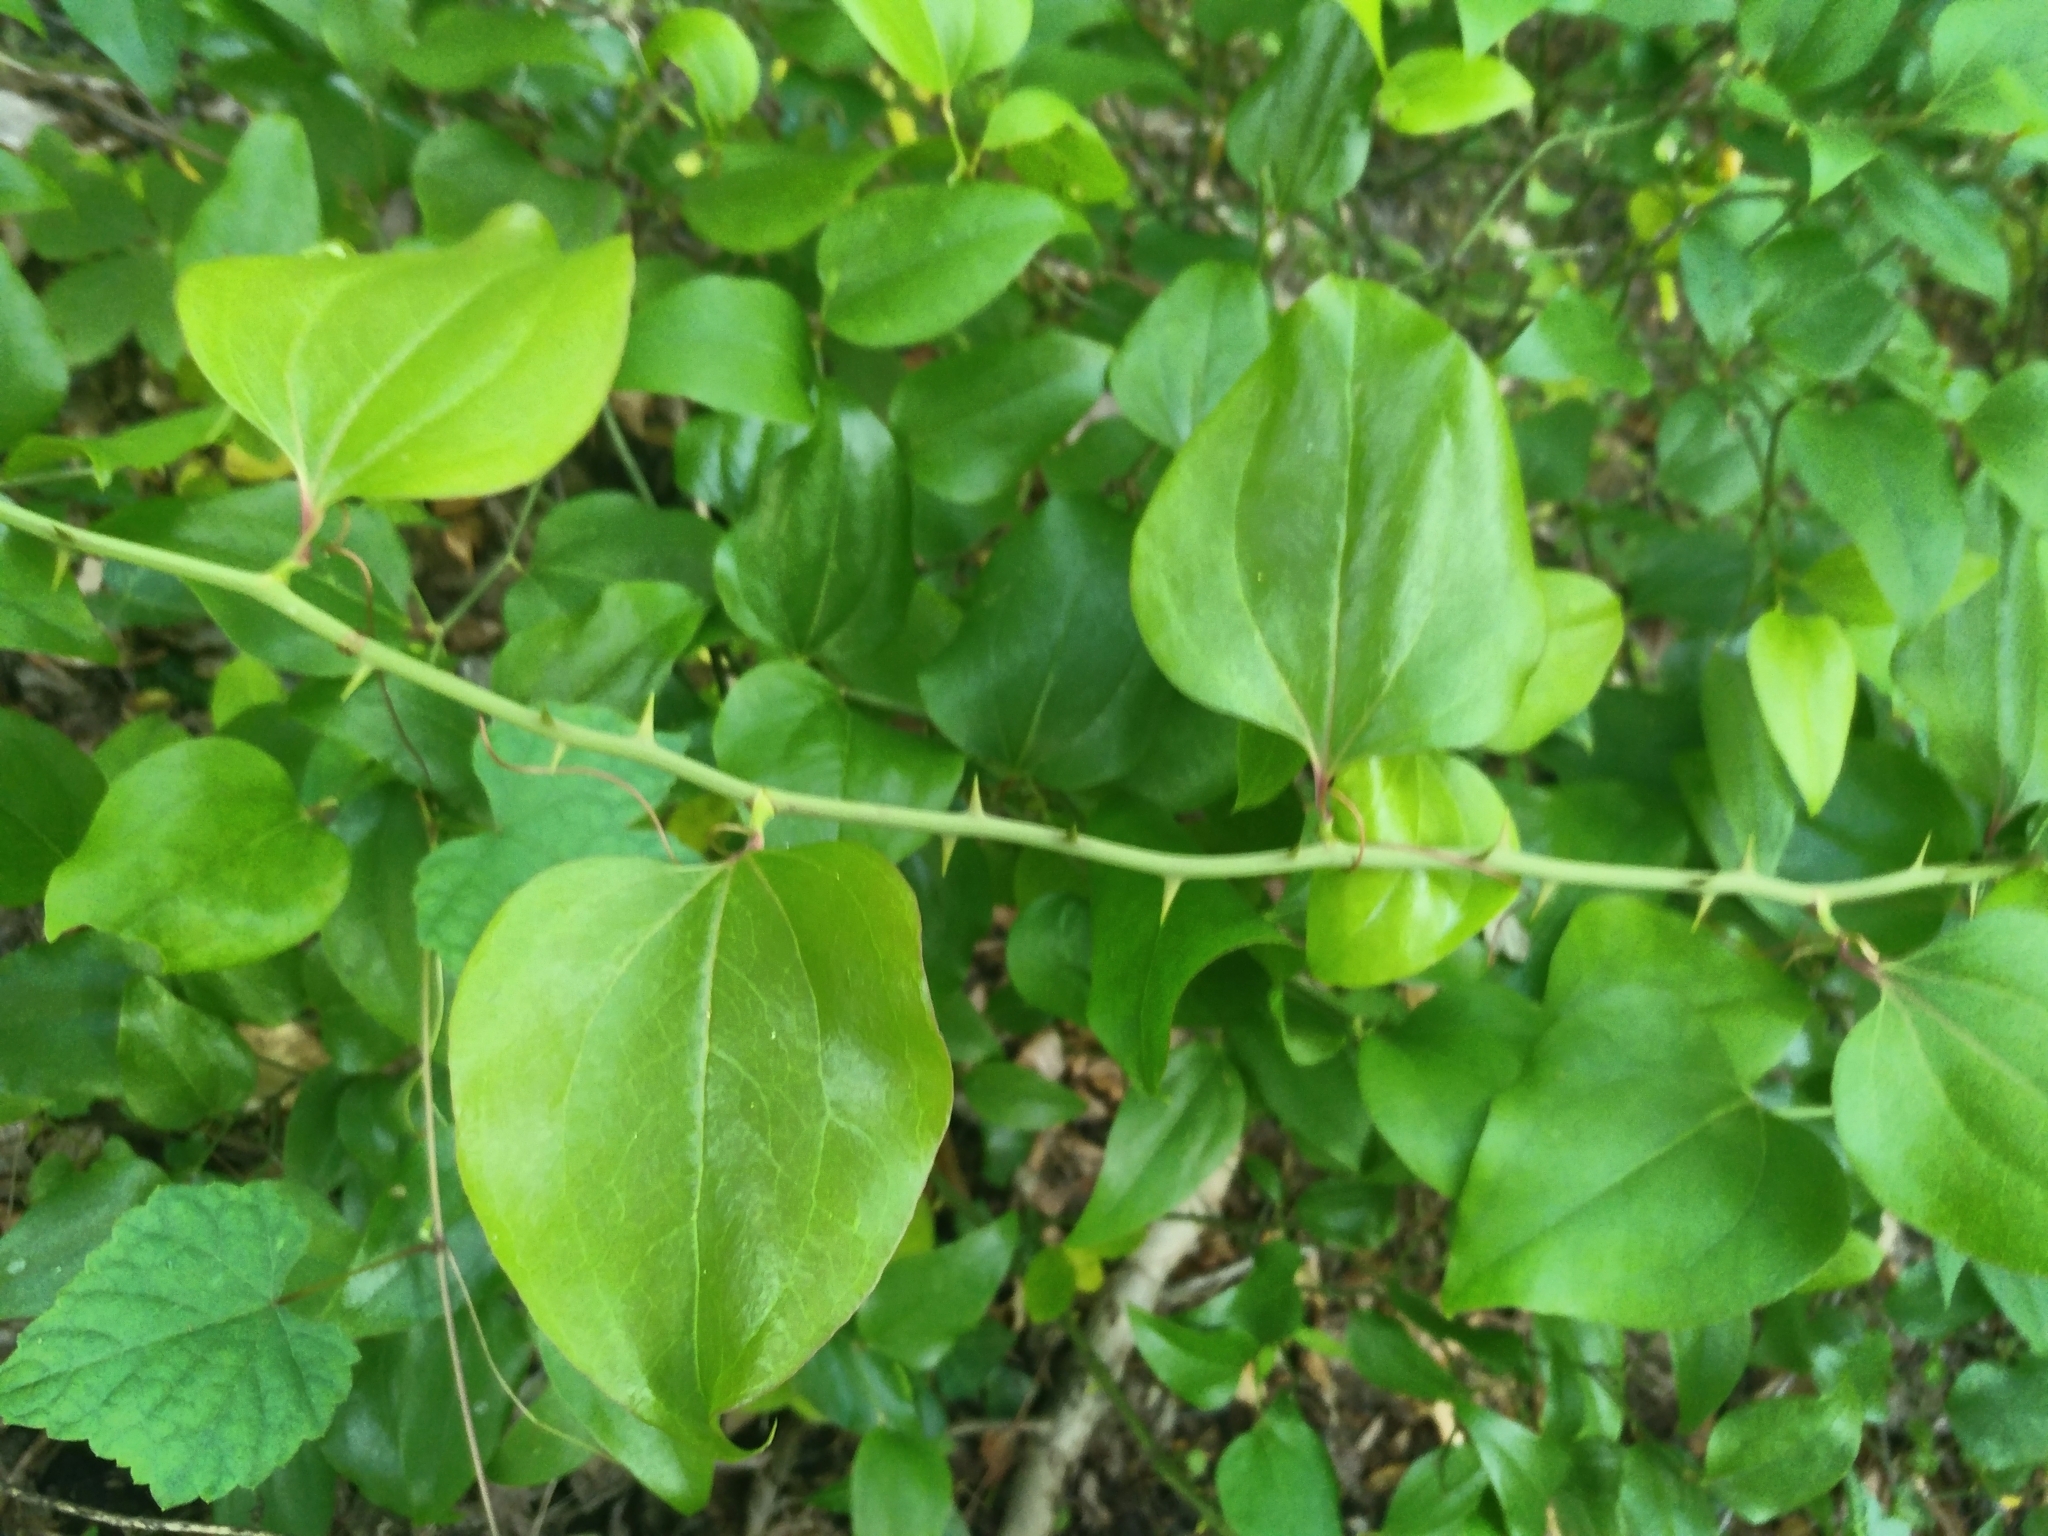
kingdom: Plantae
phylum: Tracheophyta
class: Liliopsida
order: Liliales
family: Smilacaceae
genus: Smilax
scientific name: Smilax rotundifolia
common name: Bullbriar
